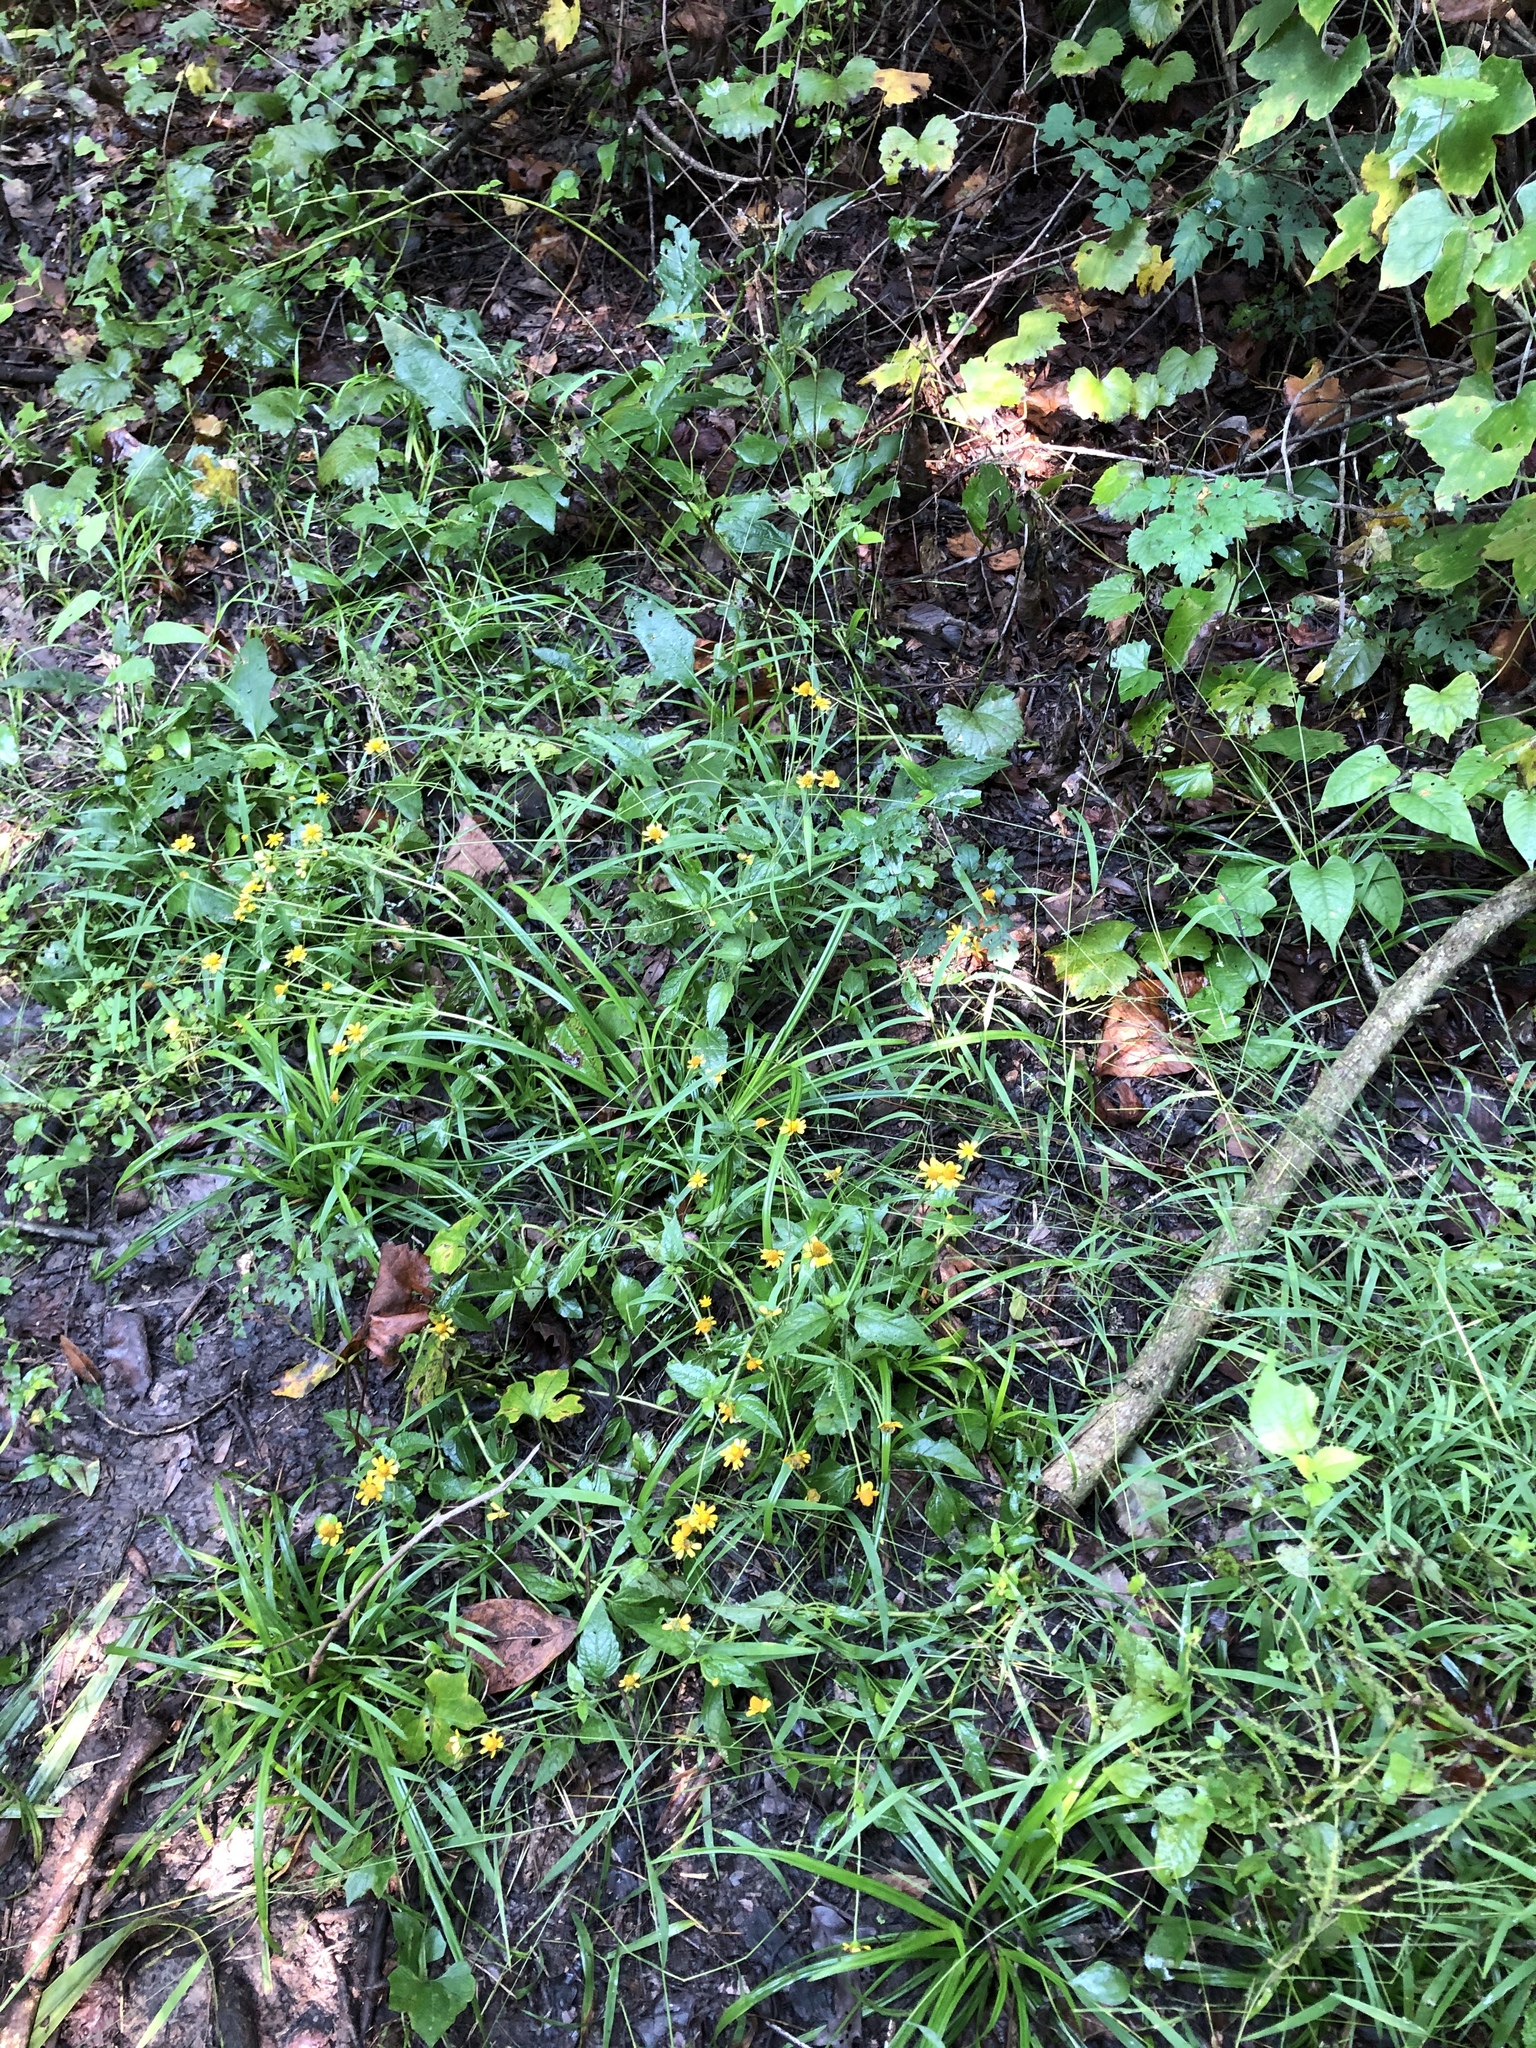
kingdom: Plantae
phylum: Tracheophyta
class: Magnoliopsida
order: Asterales
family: Asteraceae
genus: Acmella
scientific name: Acmella repens
